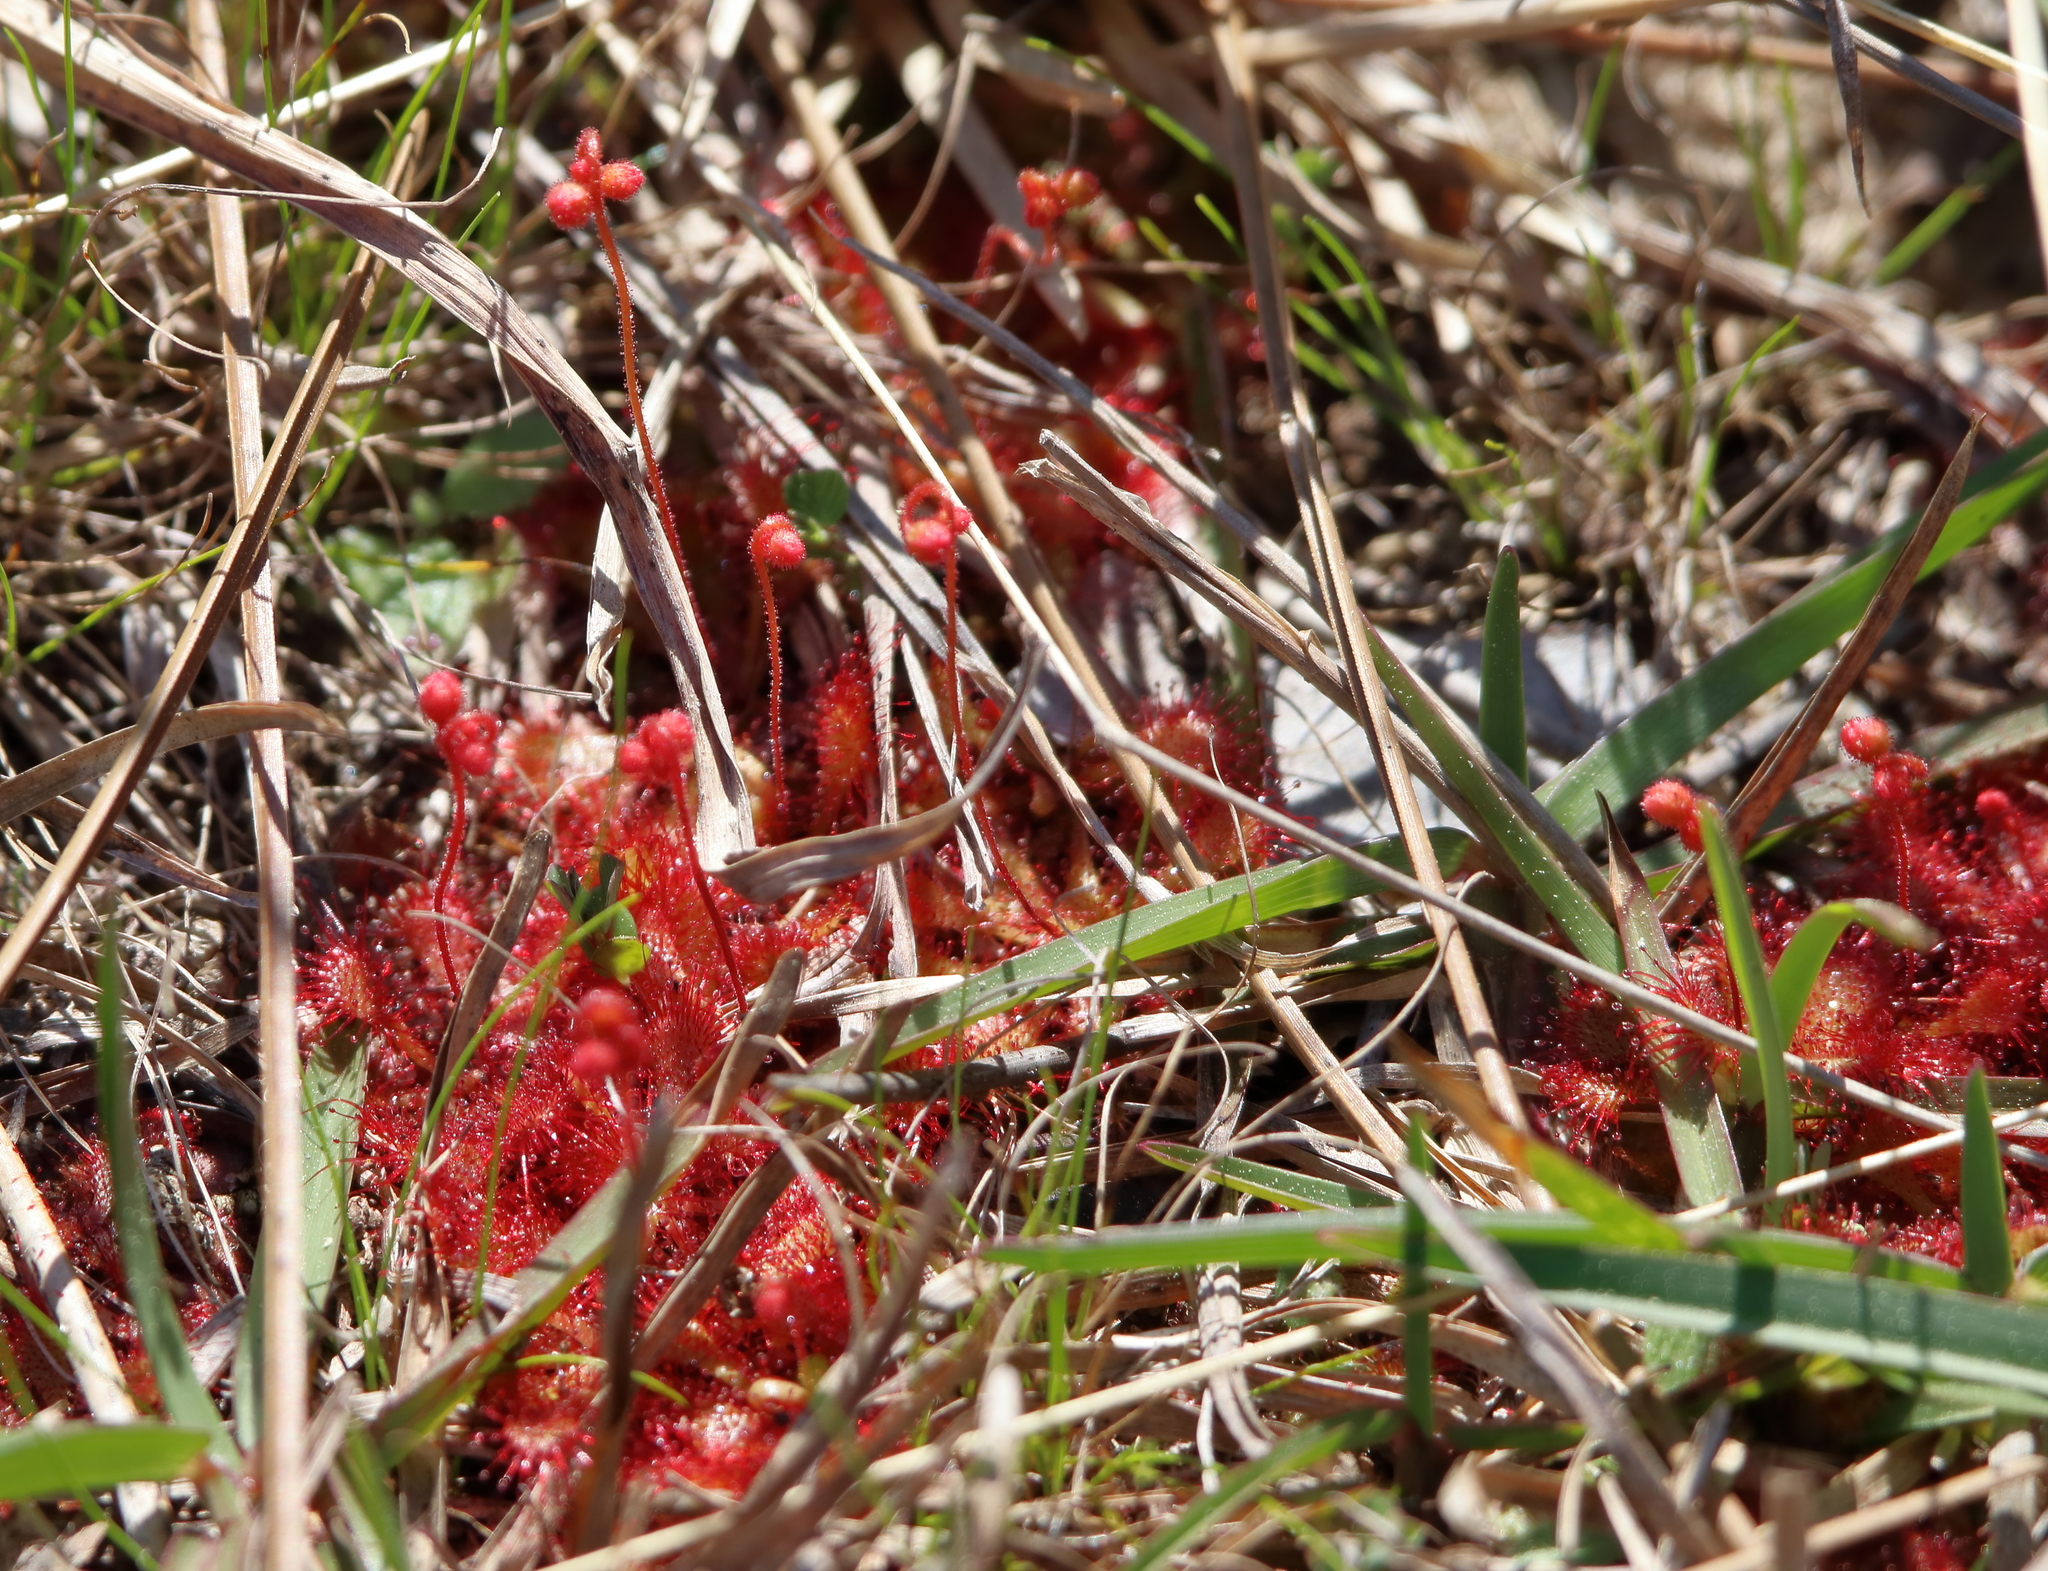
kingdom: Plantae
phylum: Tracheophyta
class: Magnoliopsida
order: Caryophyllales
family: Droseraceae
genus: Drosera
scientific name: Drosera brevifolia
